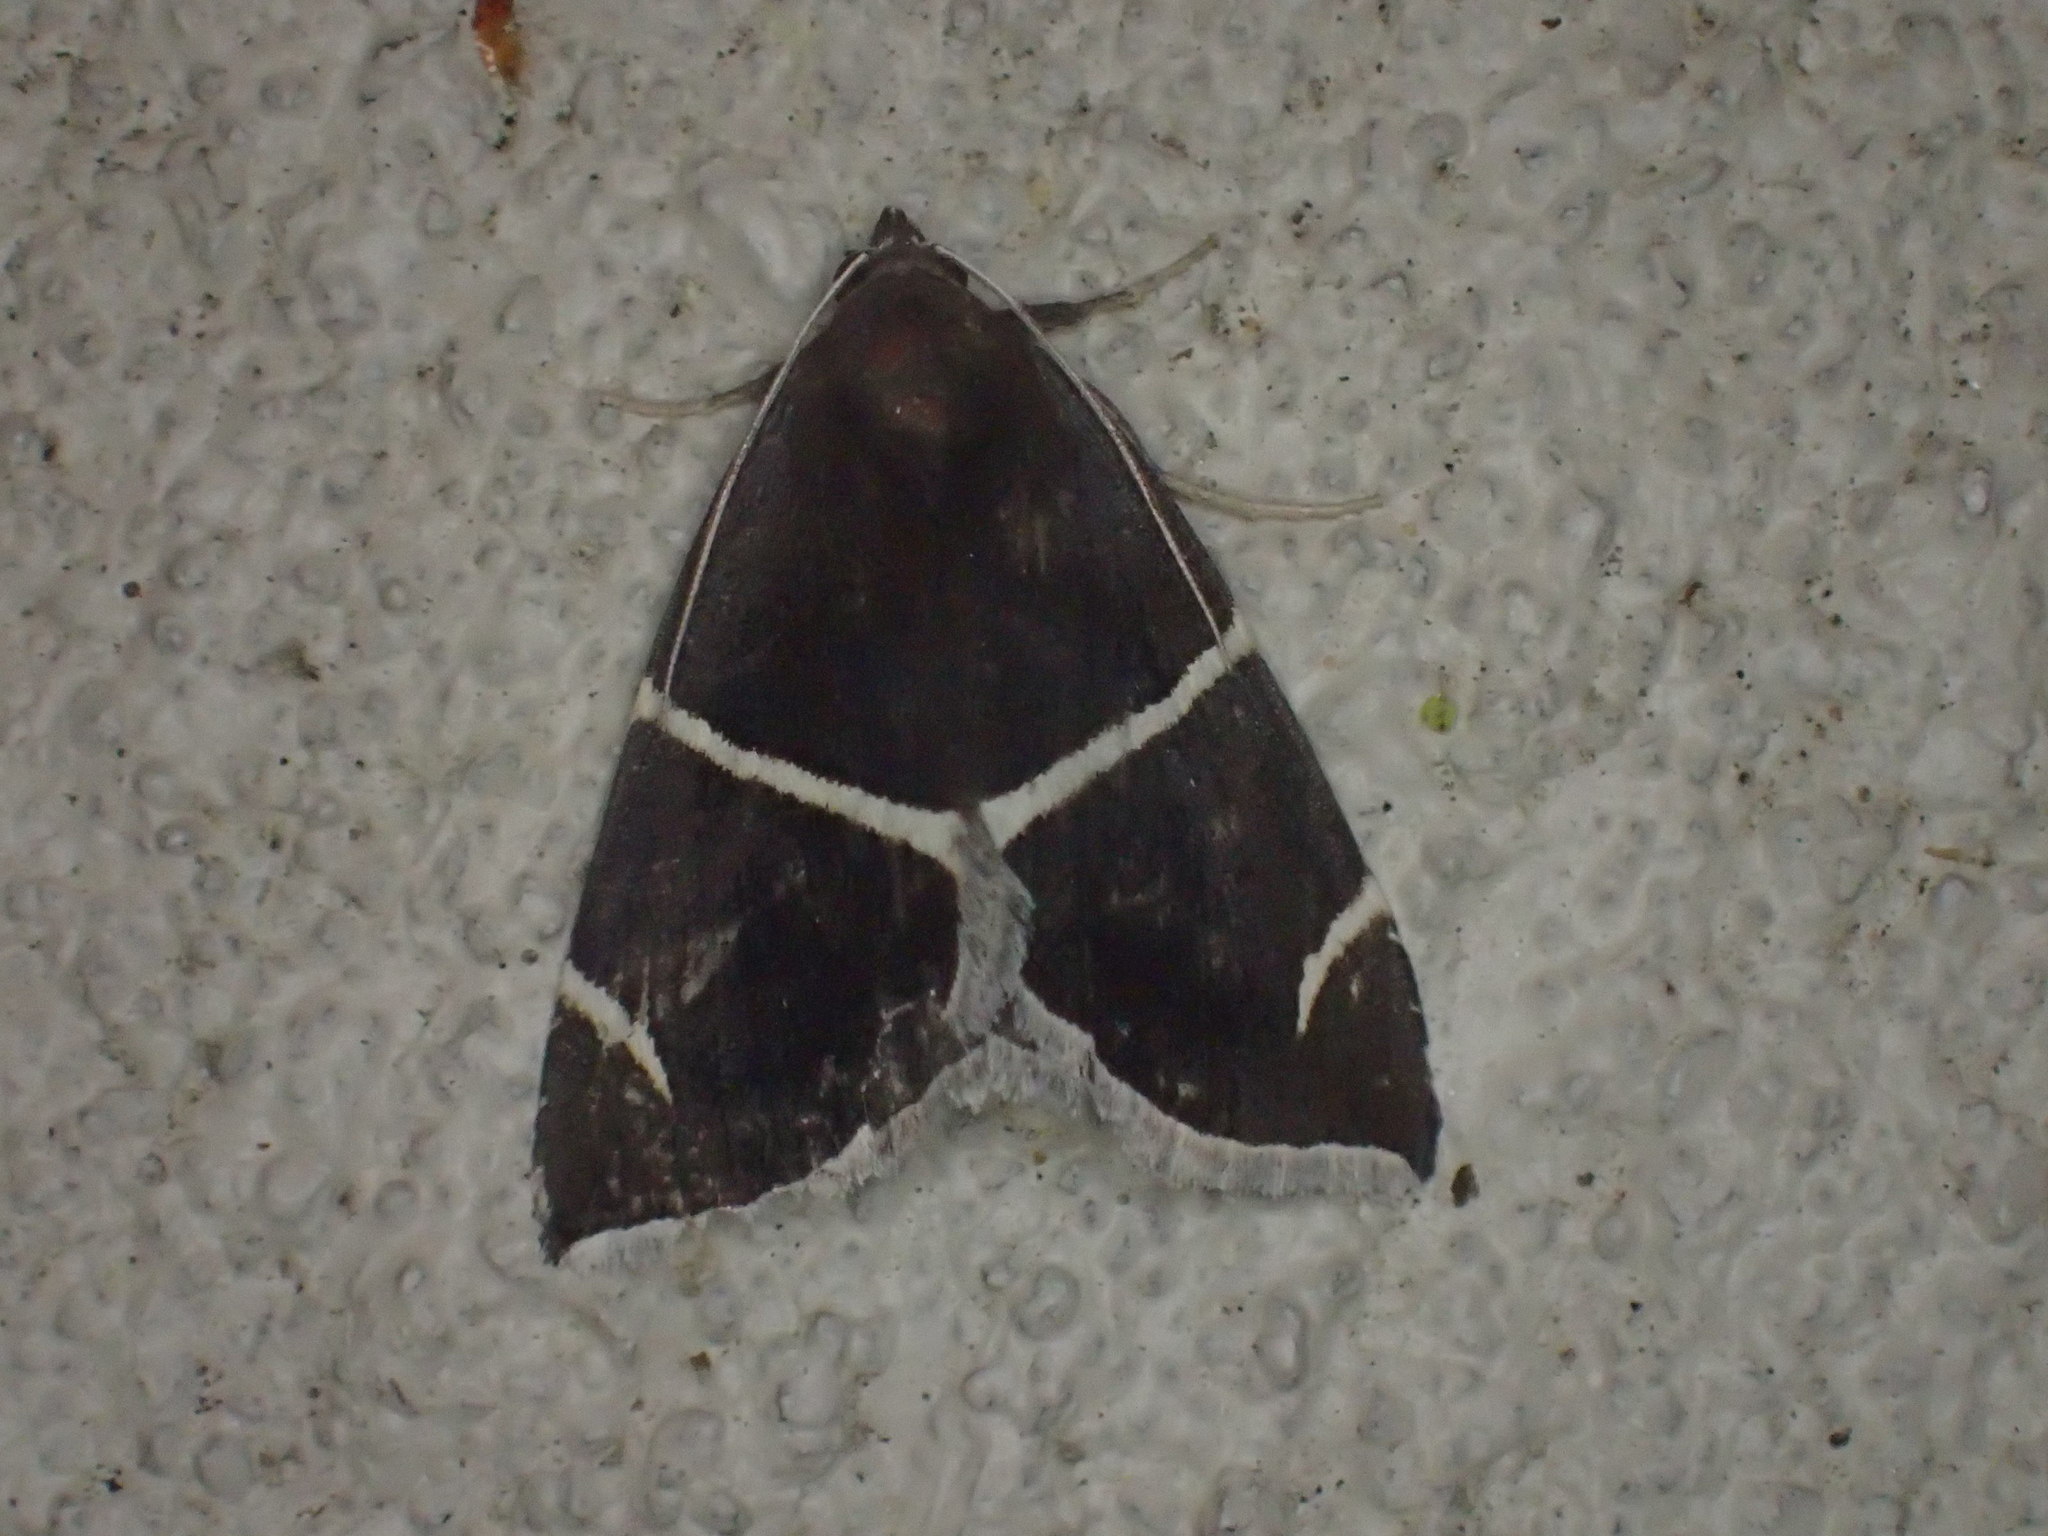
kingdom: Animalia
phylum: Arthropoda
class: Insecta
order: Lepidoptera
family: Erebidae
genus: Argyrostrotis
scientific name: Argyrostrotis anilis
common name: Short-lined chocolate
